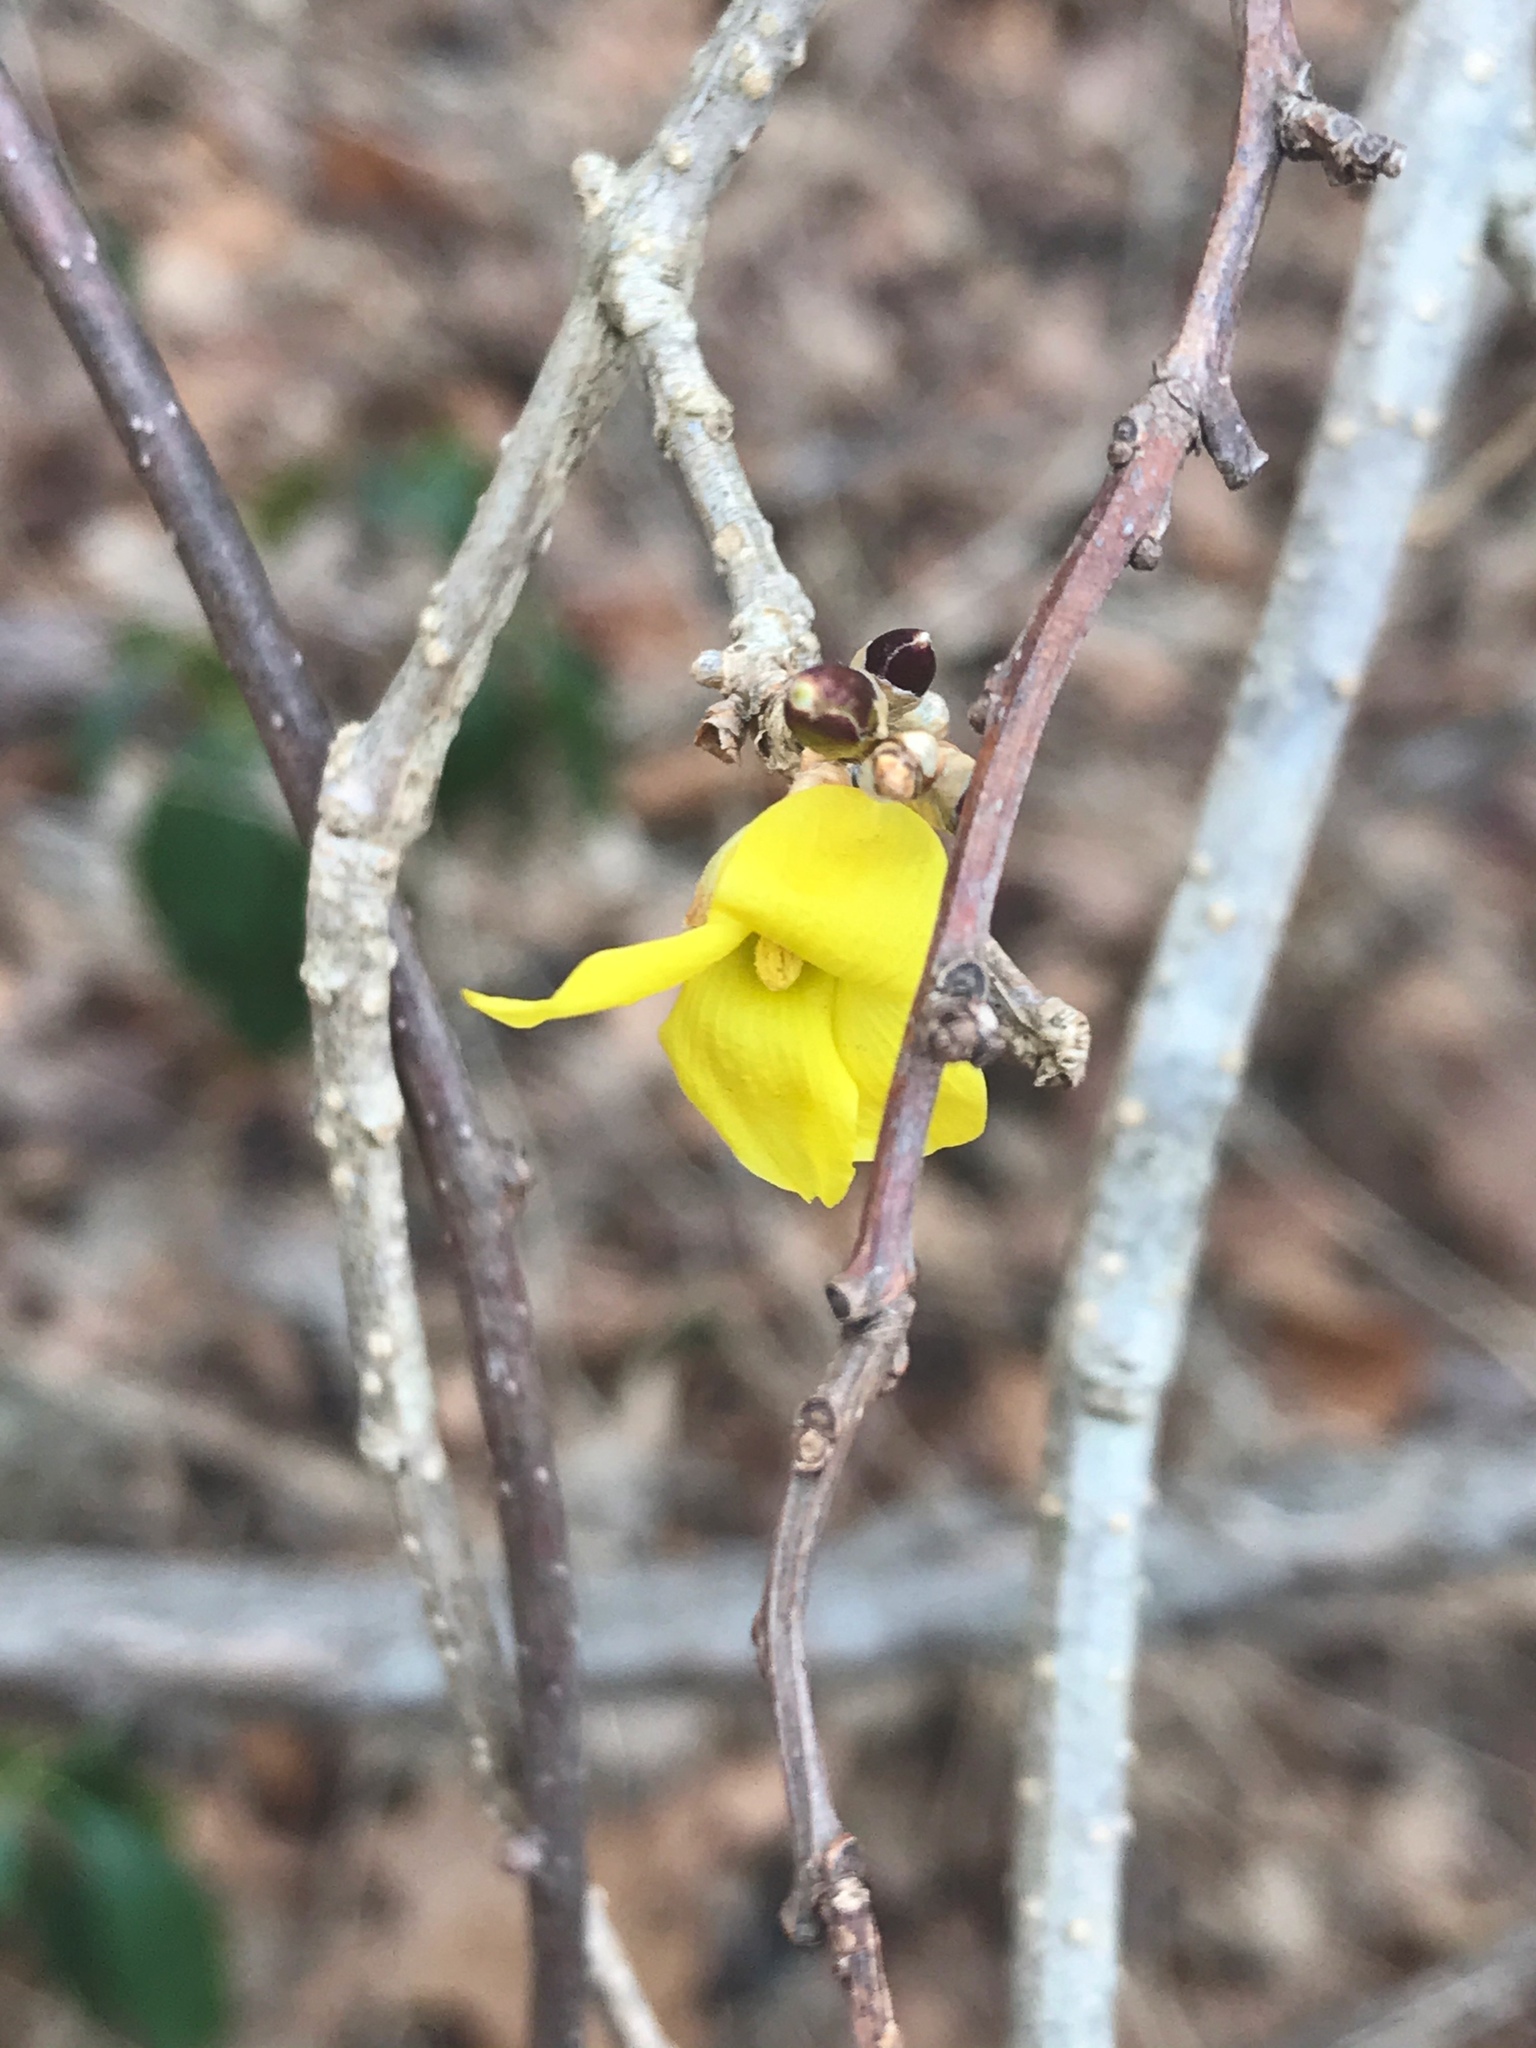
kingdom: Plantae
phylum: Tracheophyta
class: Magnoliopsida
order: Lamiales
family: Oleaceae
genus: Forsythia
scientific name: Forsythia
